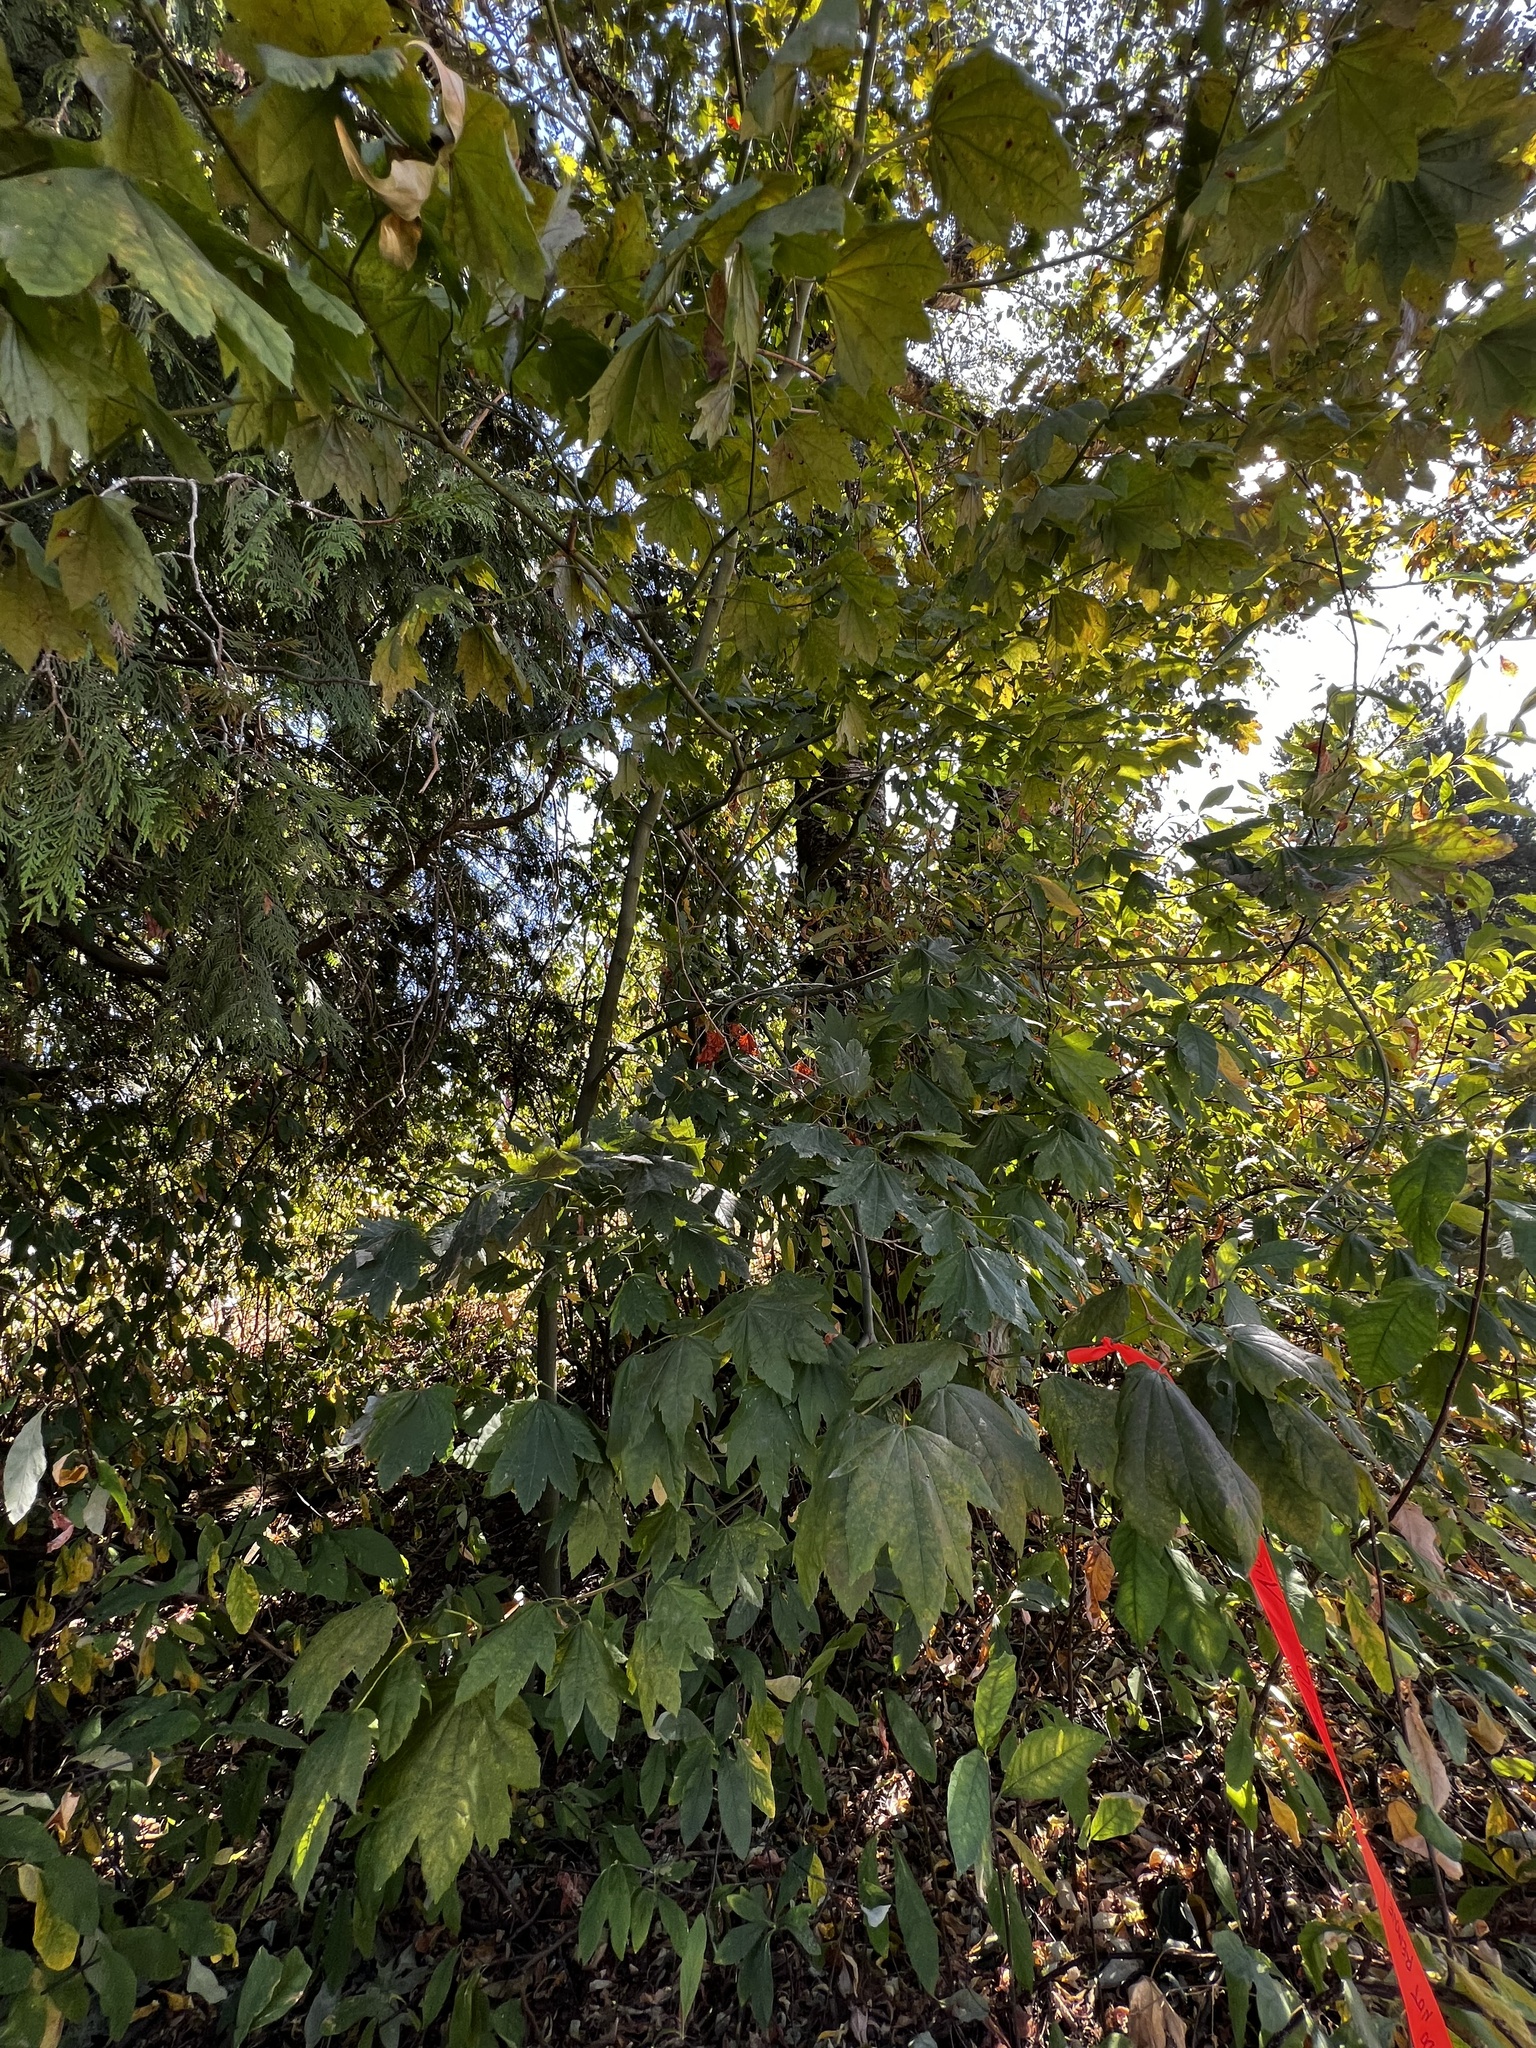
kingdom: Plantae
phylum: Tracheophyta
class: Magnoliopsida
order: Sapindales
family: Sapindaceae
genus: Acer
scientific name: Acer circinatum
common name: Vine maple
